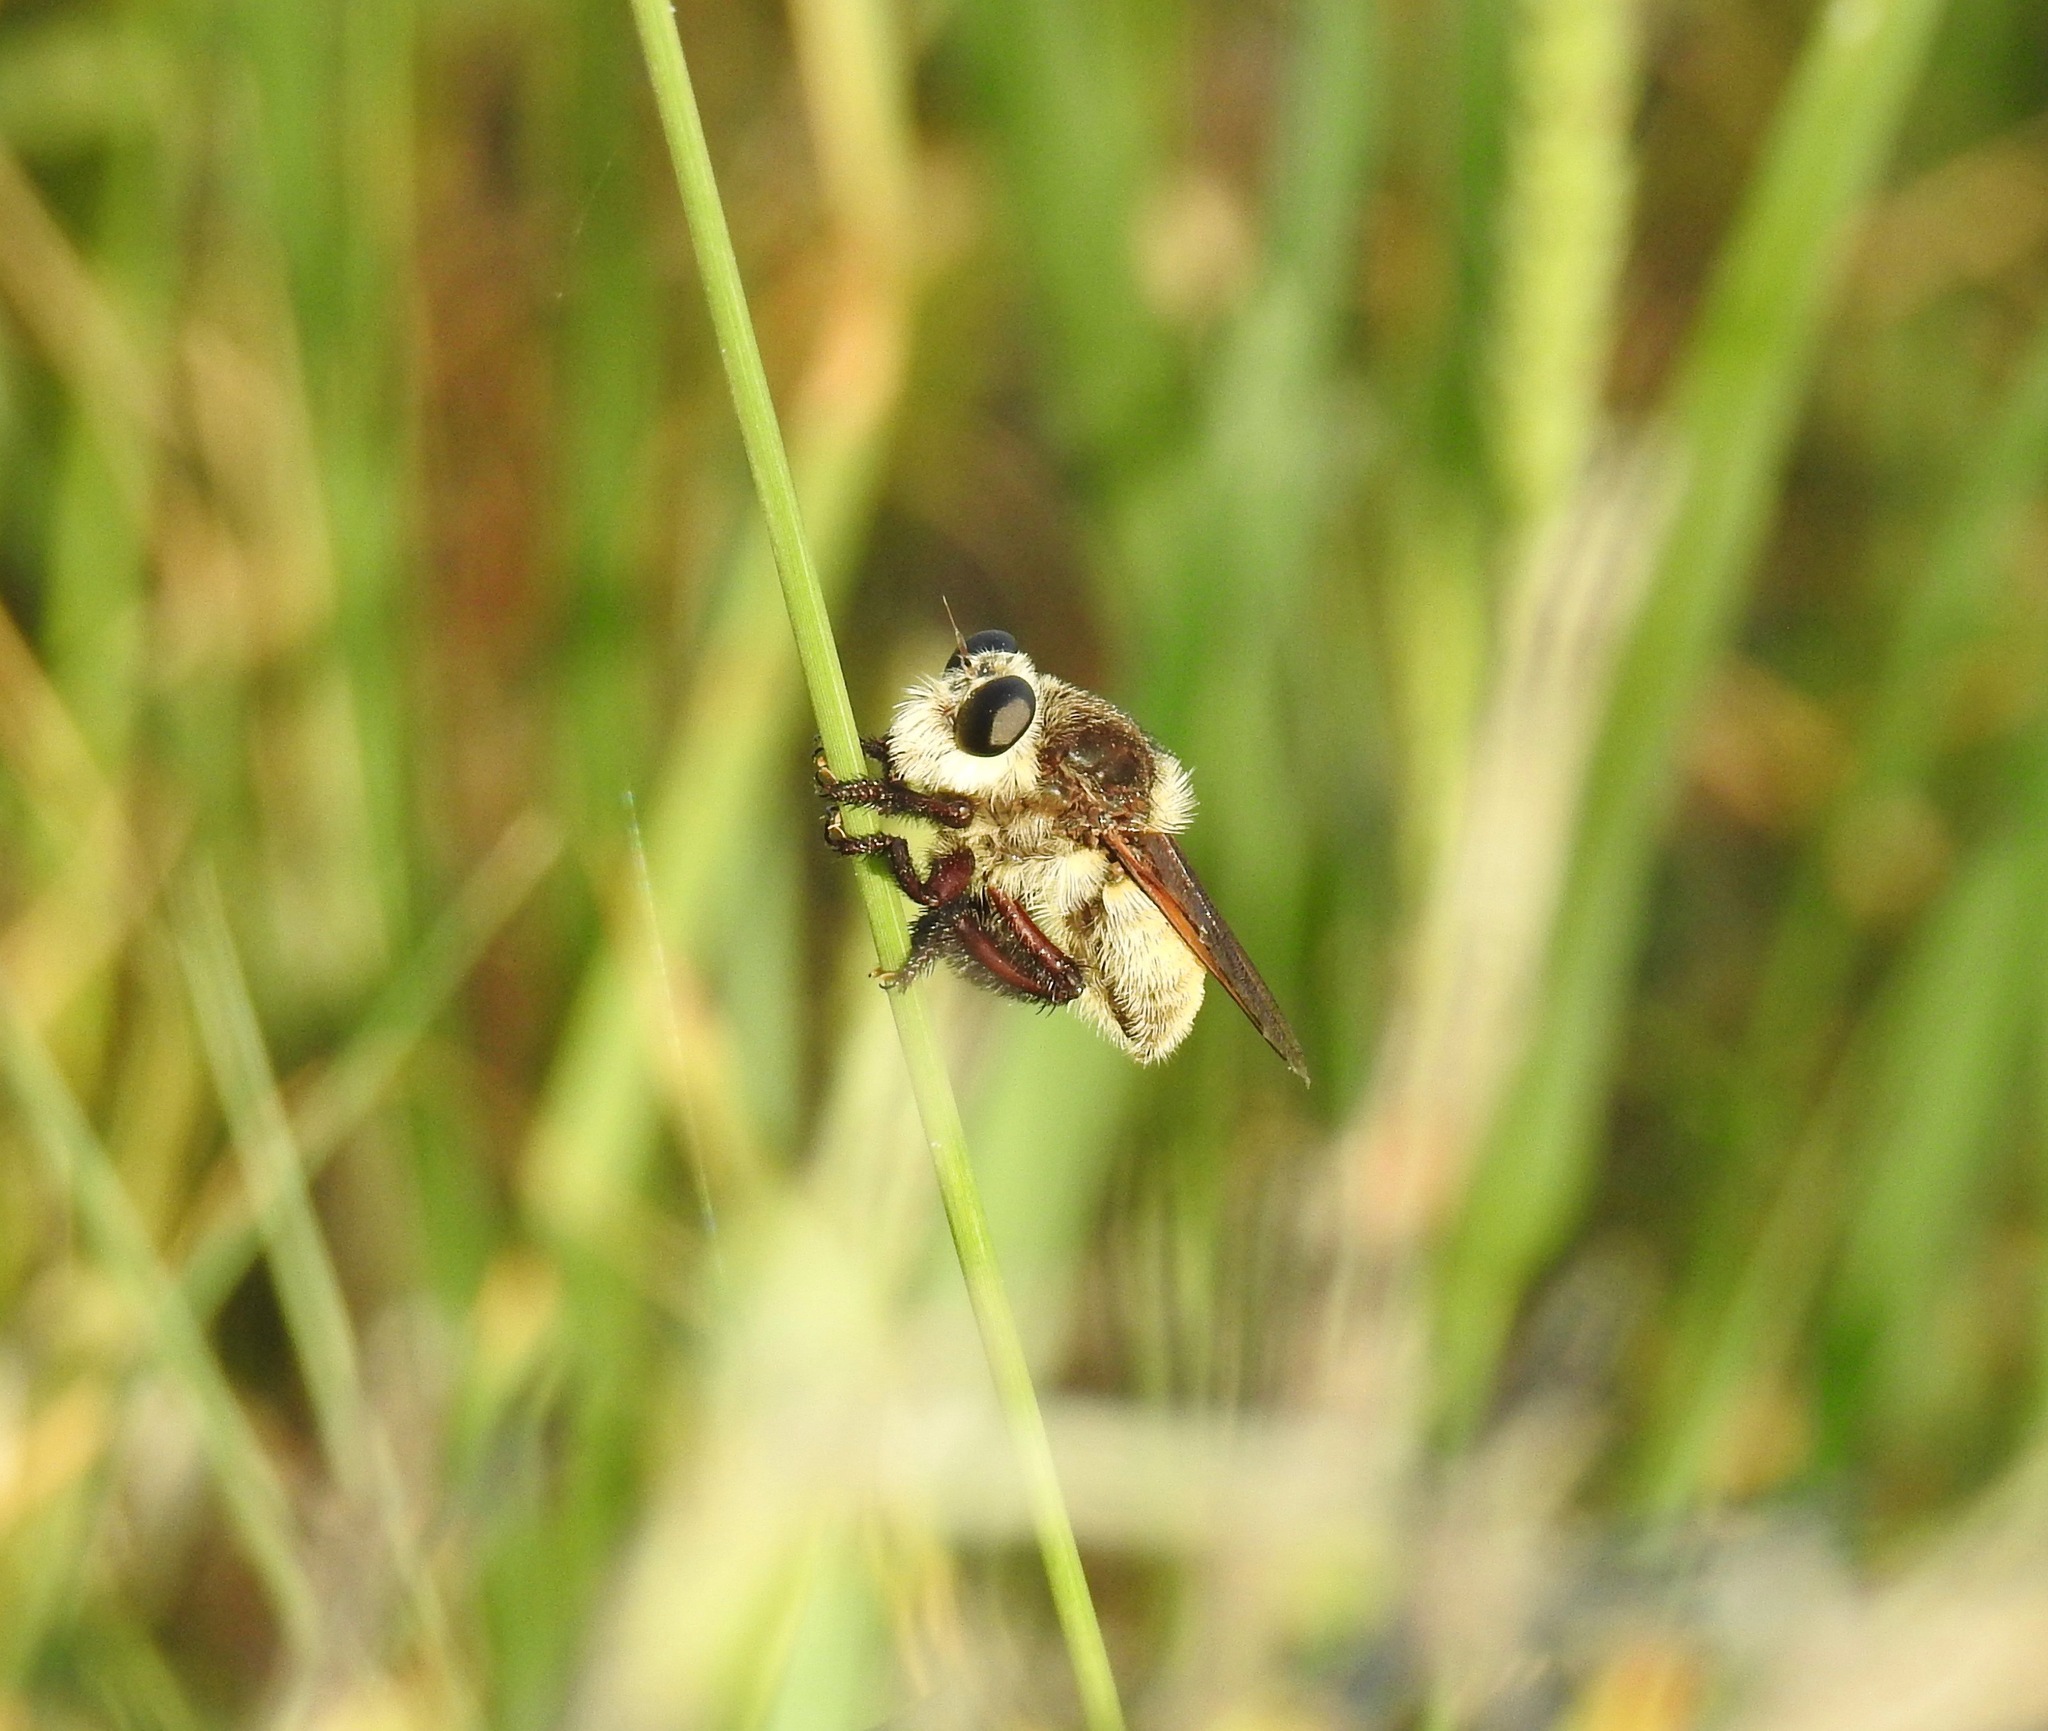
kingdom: Animalia
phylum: Arthropoda
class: Insecta
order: Diptera
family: Asilidae
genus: Mallophora
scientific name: Mallophora fautrix
